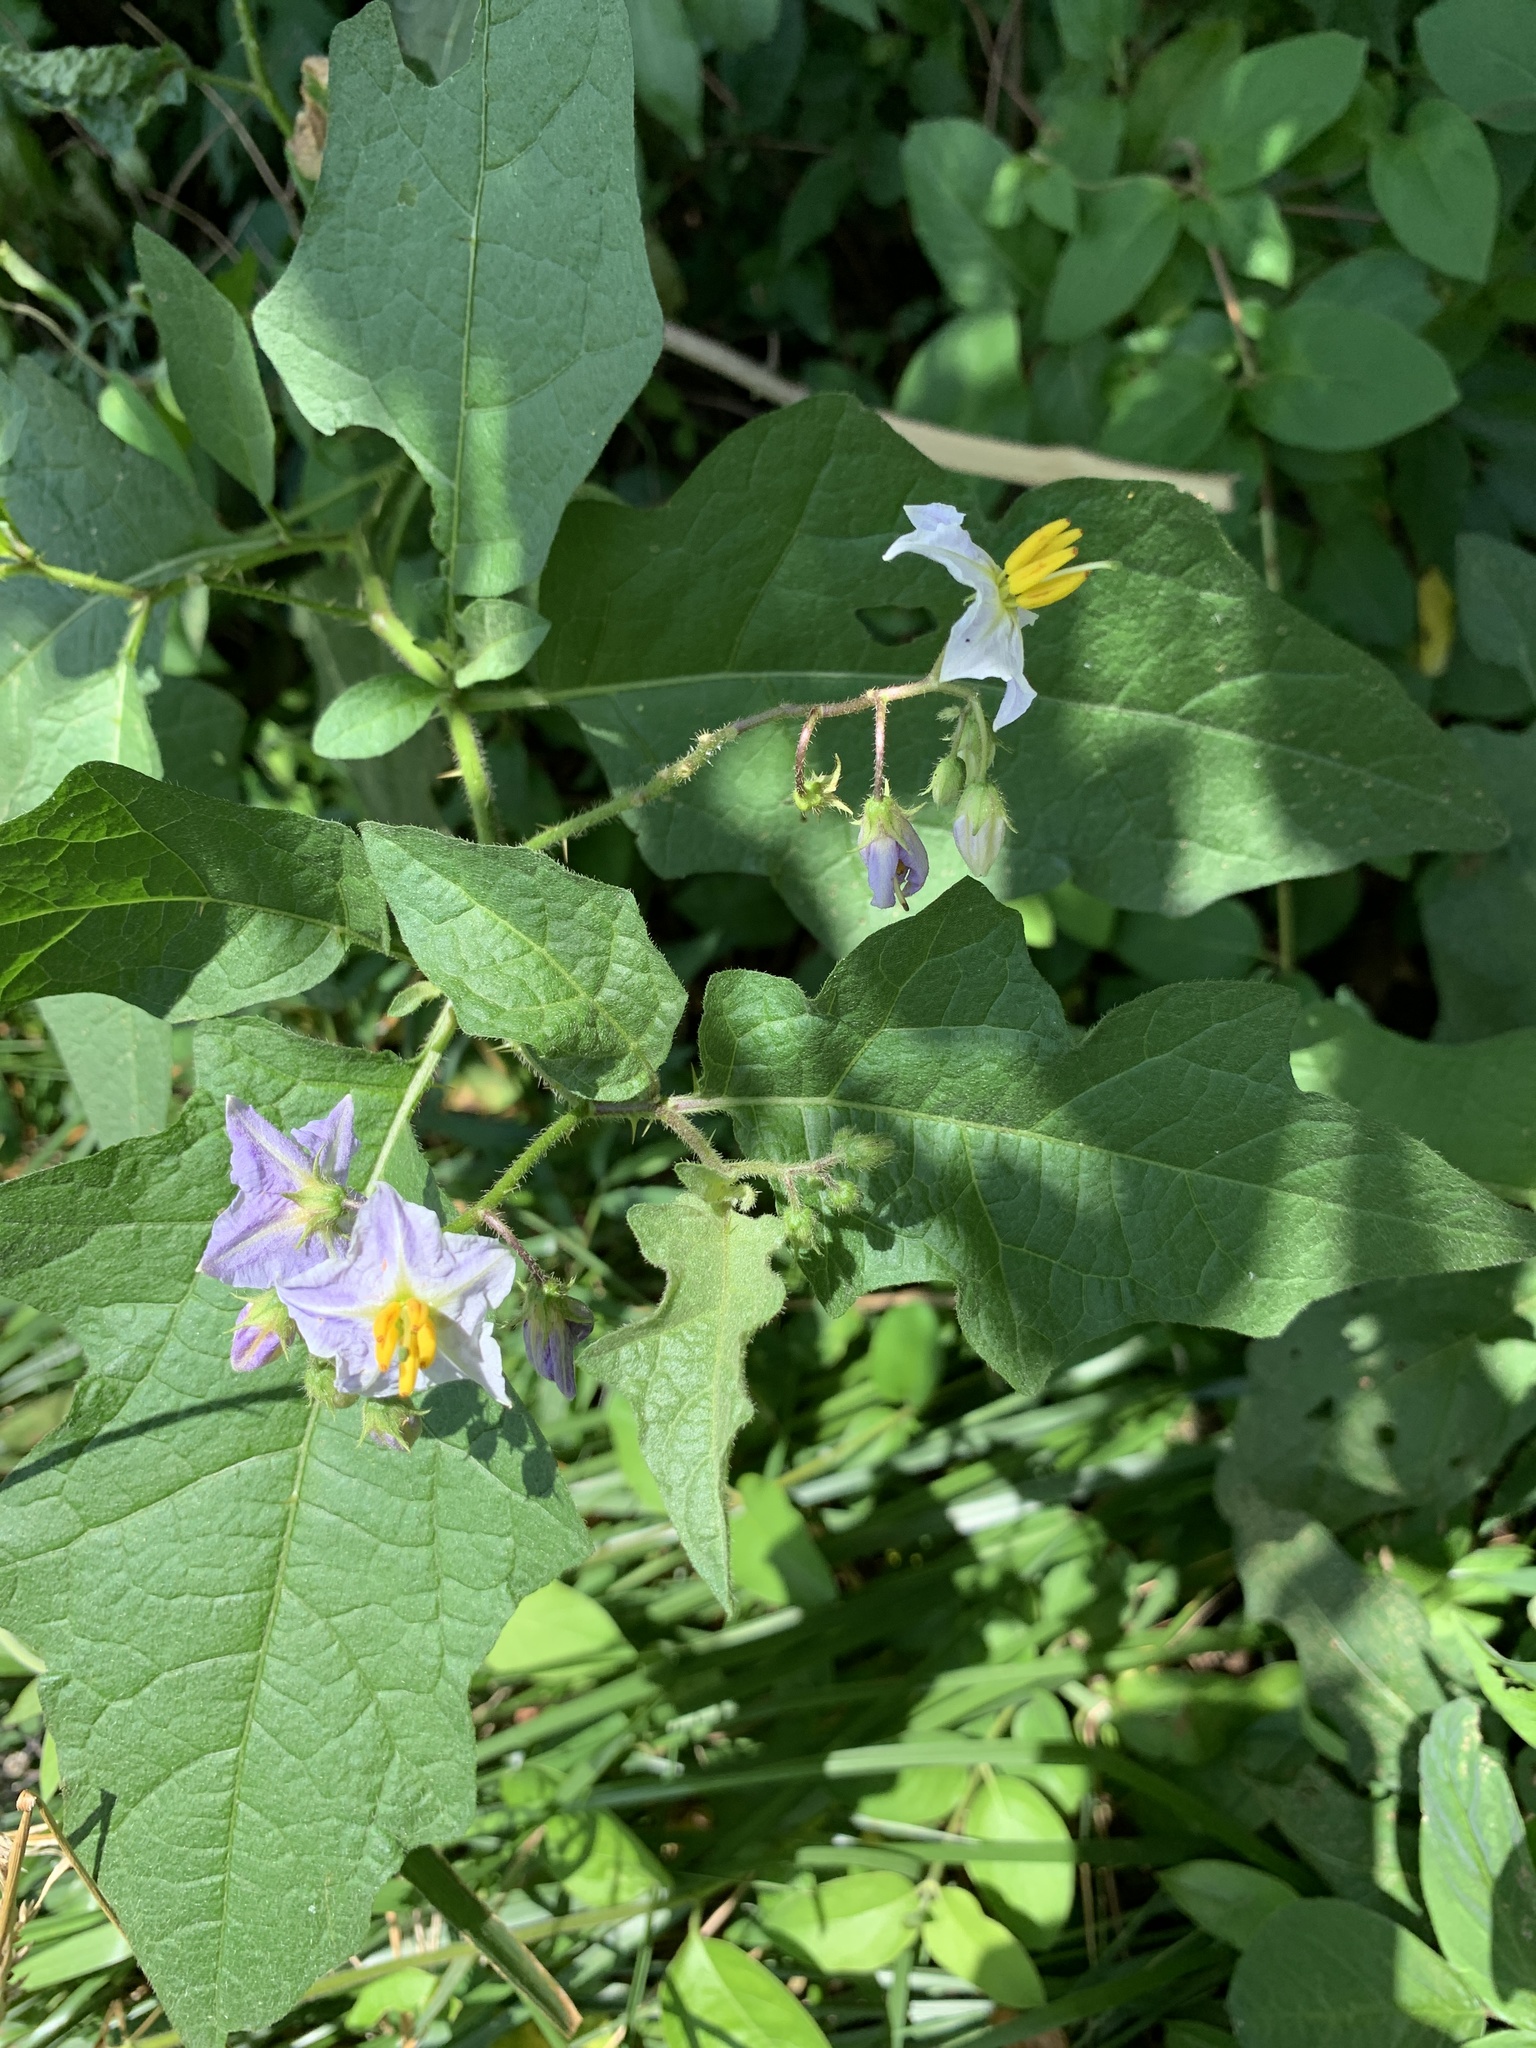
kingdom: Plantae
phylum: Tracheophyta
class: Magnoliopsida
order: Solanales
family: Solanaceae
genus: Solanum
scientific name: Solanum carolinense
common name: Horse-nettle
